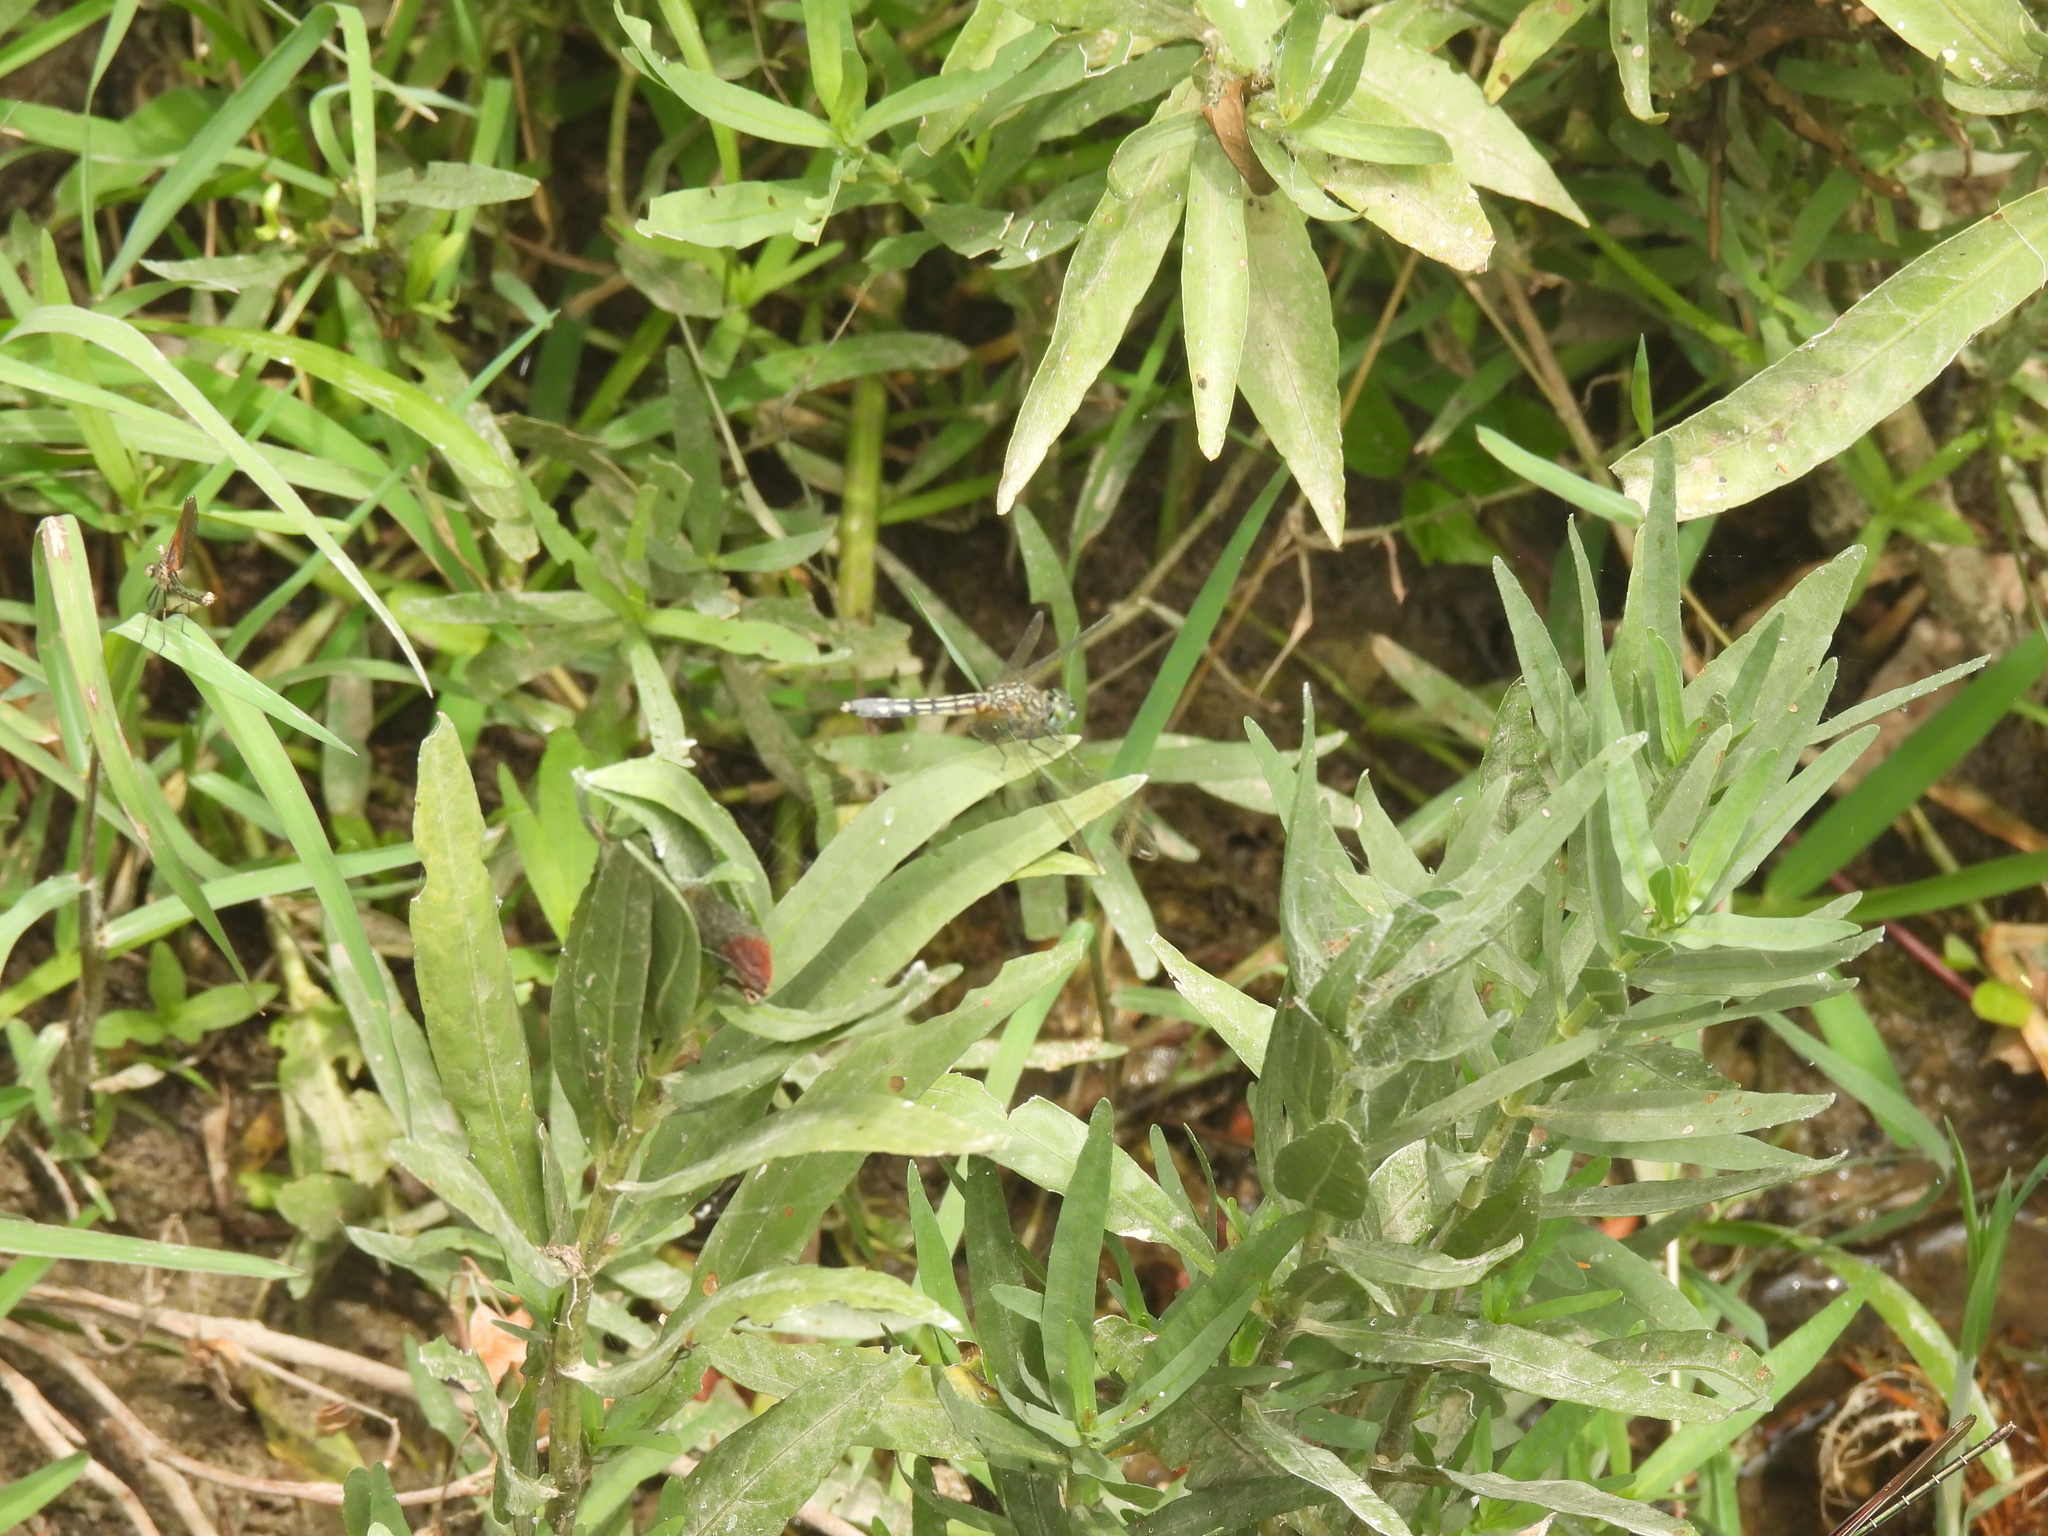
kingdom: Animalia
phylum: Arthropoda
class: Insecta
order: Odonata
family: Libellulidae
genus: Pachydiplax
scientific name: Pachydiplax longipennis
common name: Blue dasher
